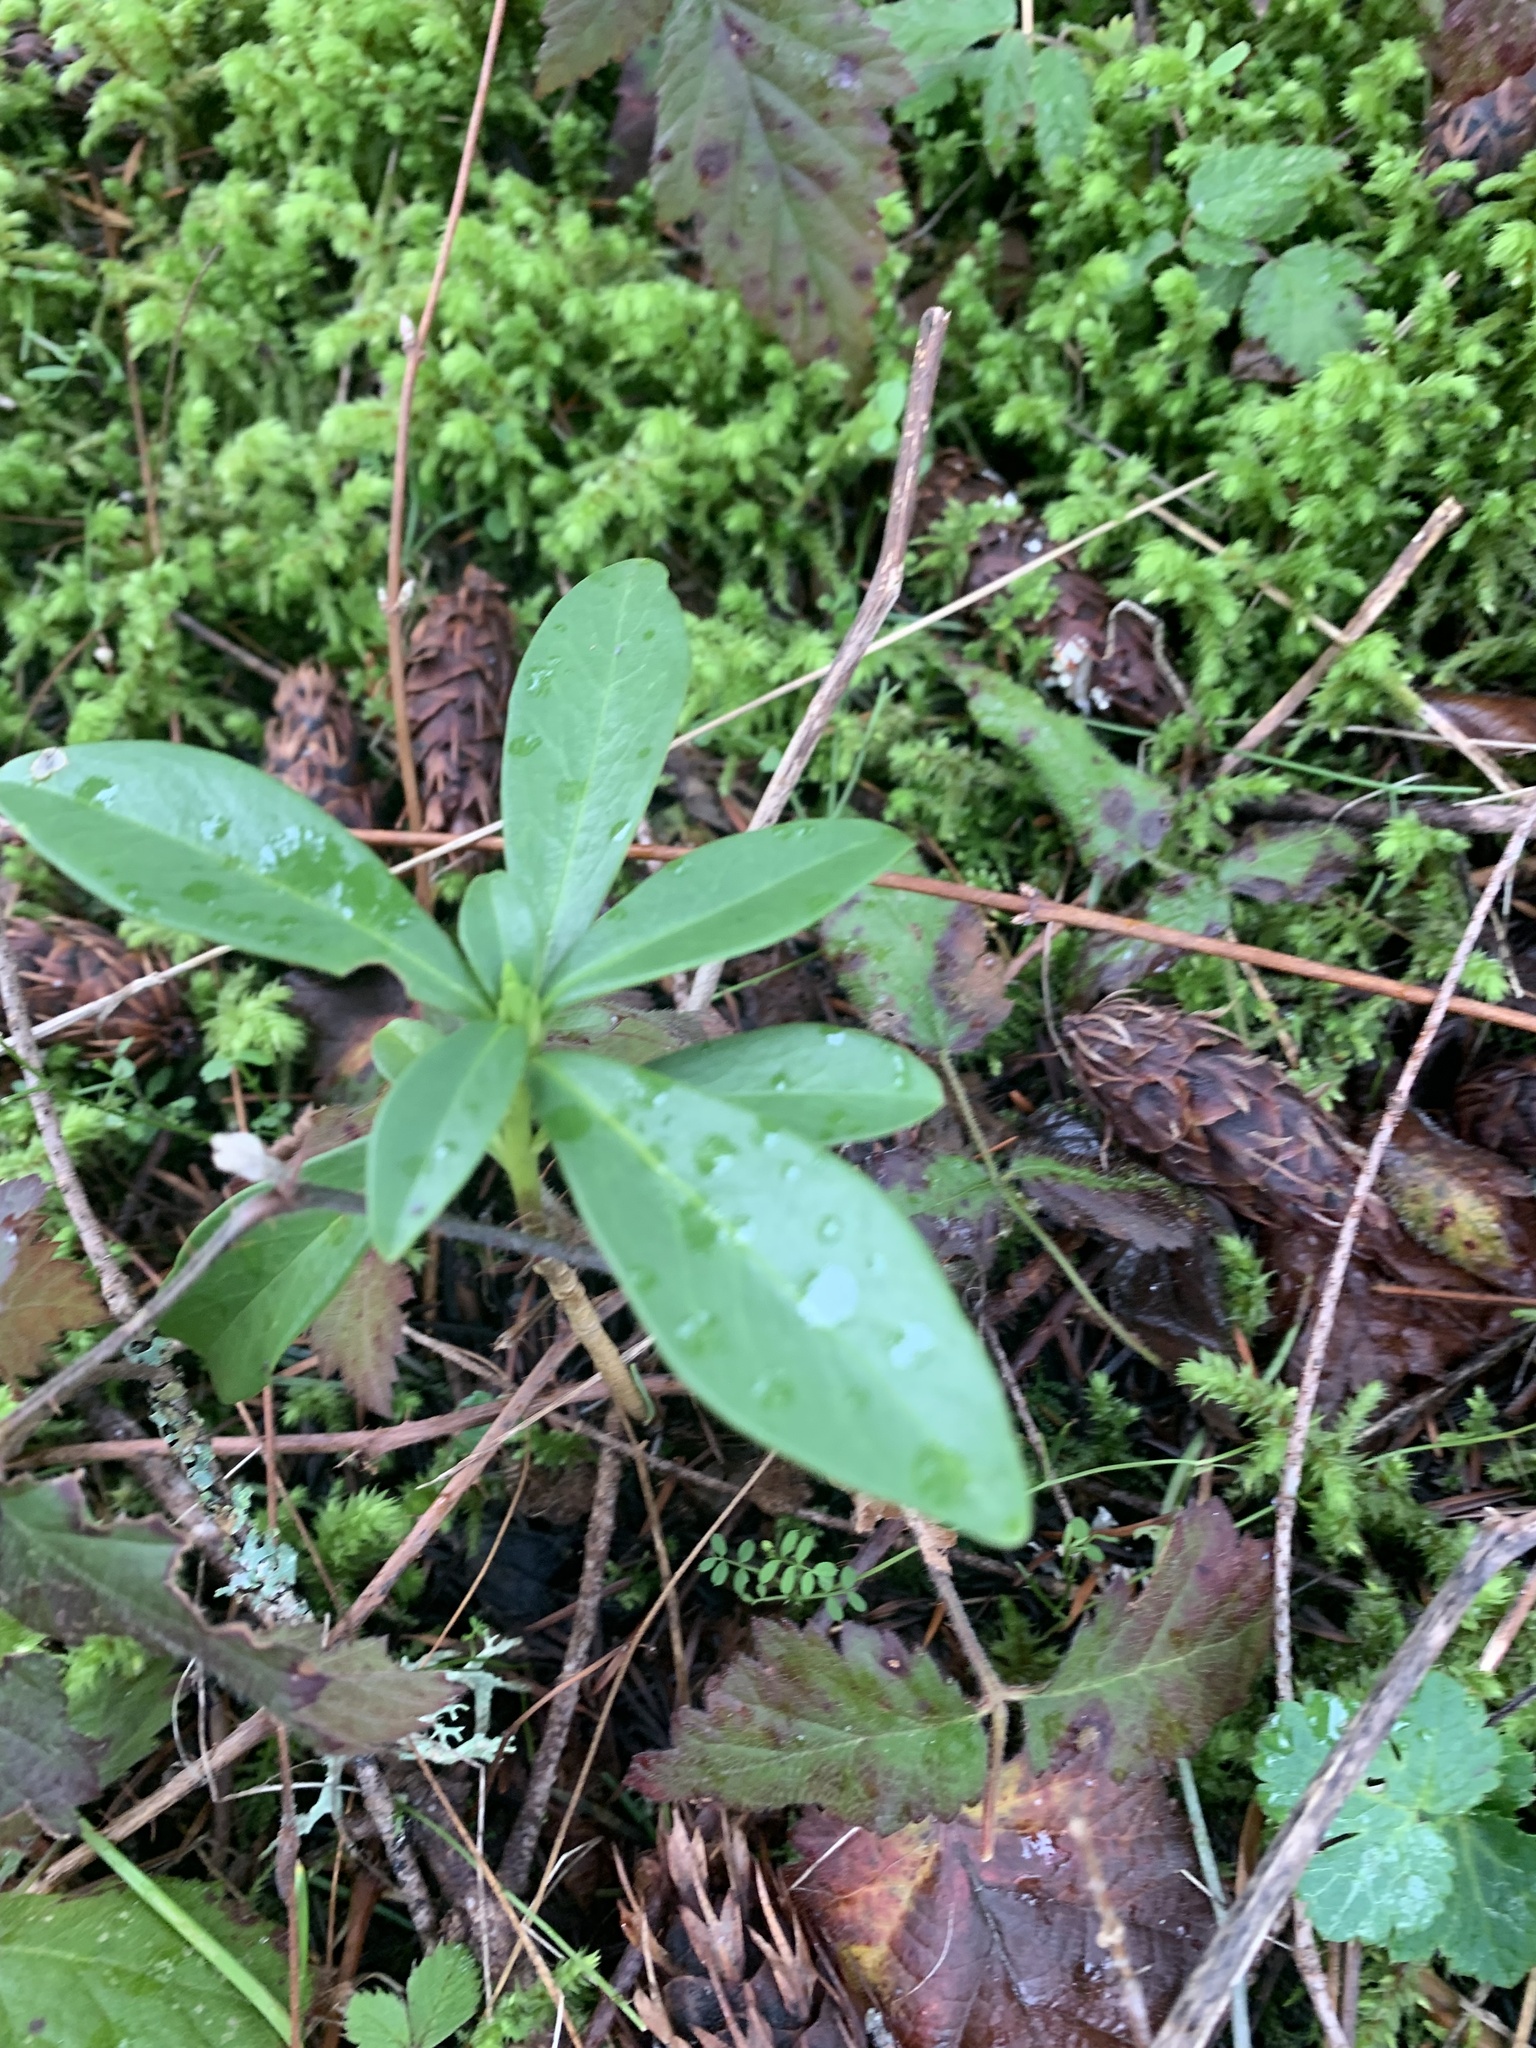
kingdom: Plantae
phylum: Tracheophyta
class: Magnoliopsida
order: Malvales
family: Thymelaeaceae
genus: Daphne
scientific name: Daphne laureola
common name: Spurge-laurel
